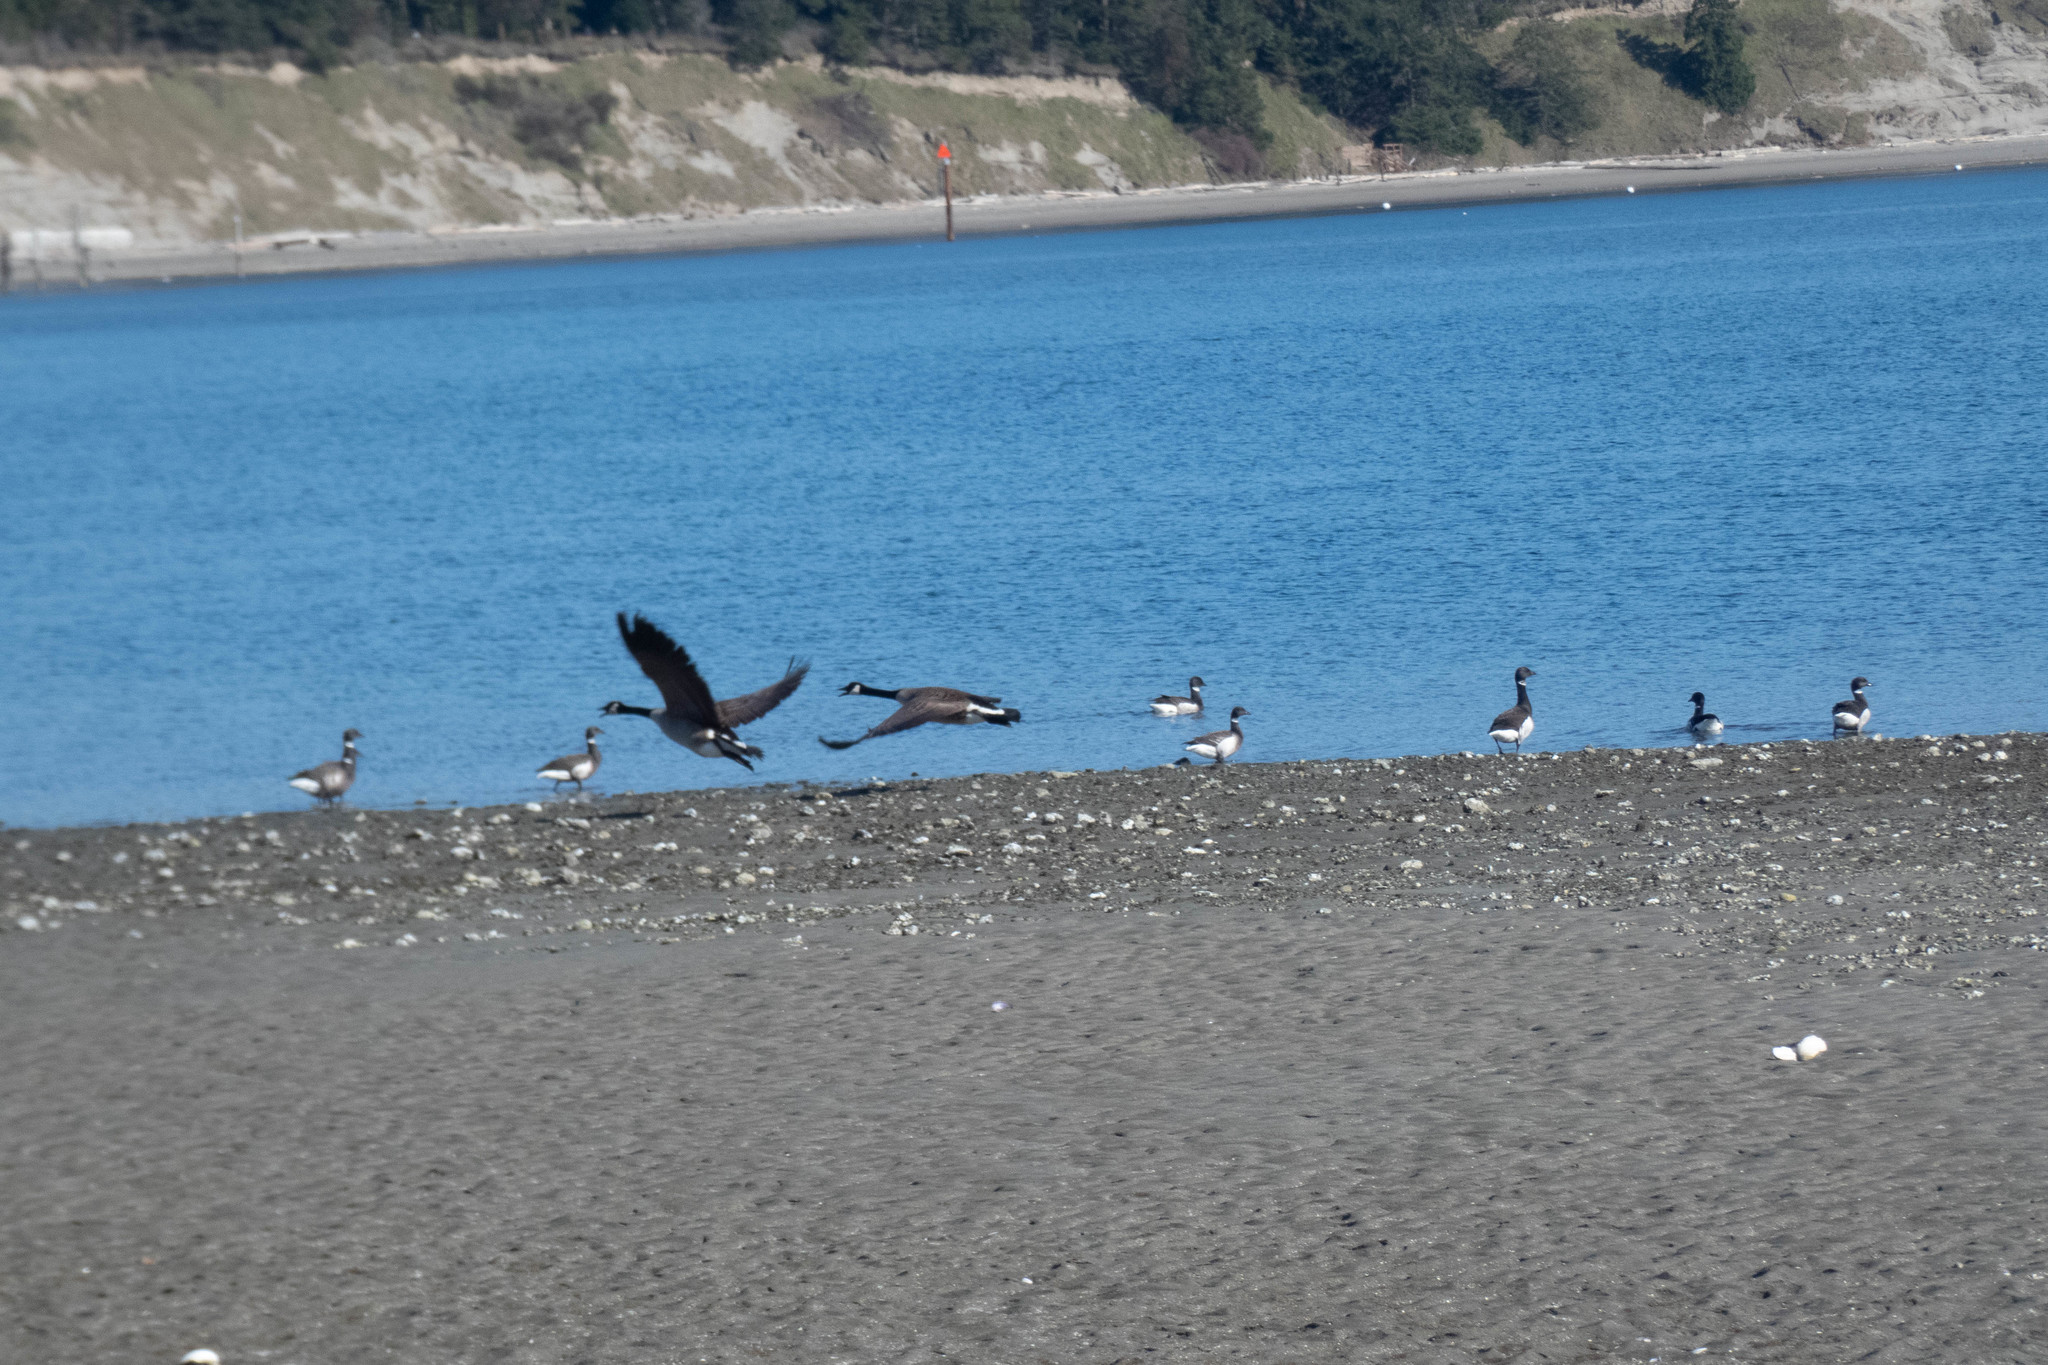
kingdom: Animalia
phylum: Chordata
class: Aves
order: Anseriformes
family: Anatidae
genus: Branta
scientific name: Branta canadensis
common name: Canada goose
